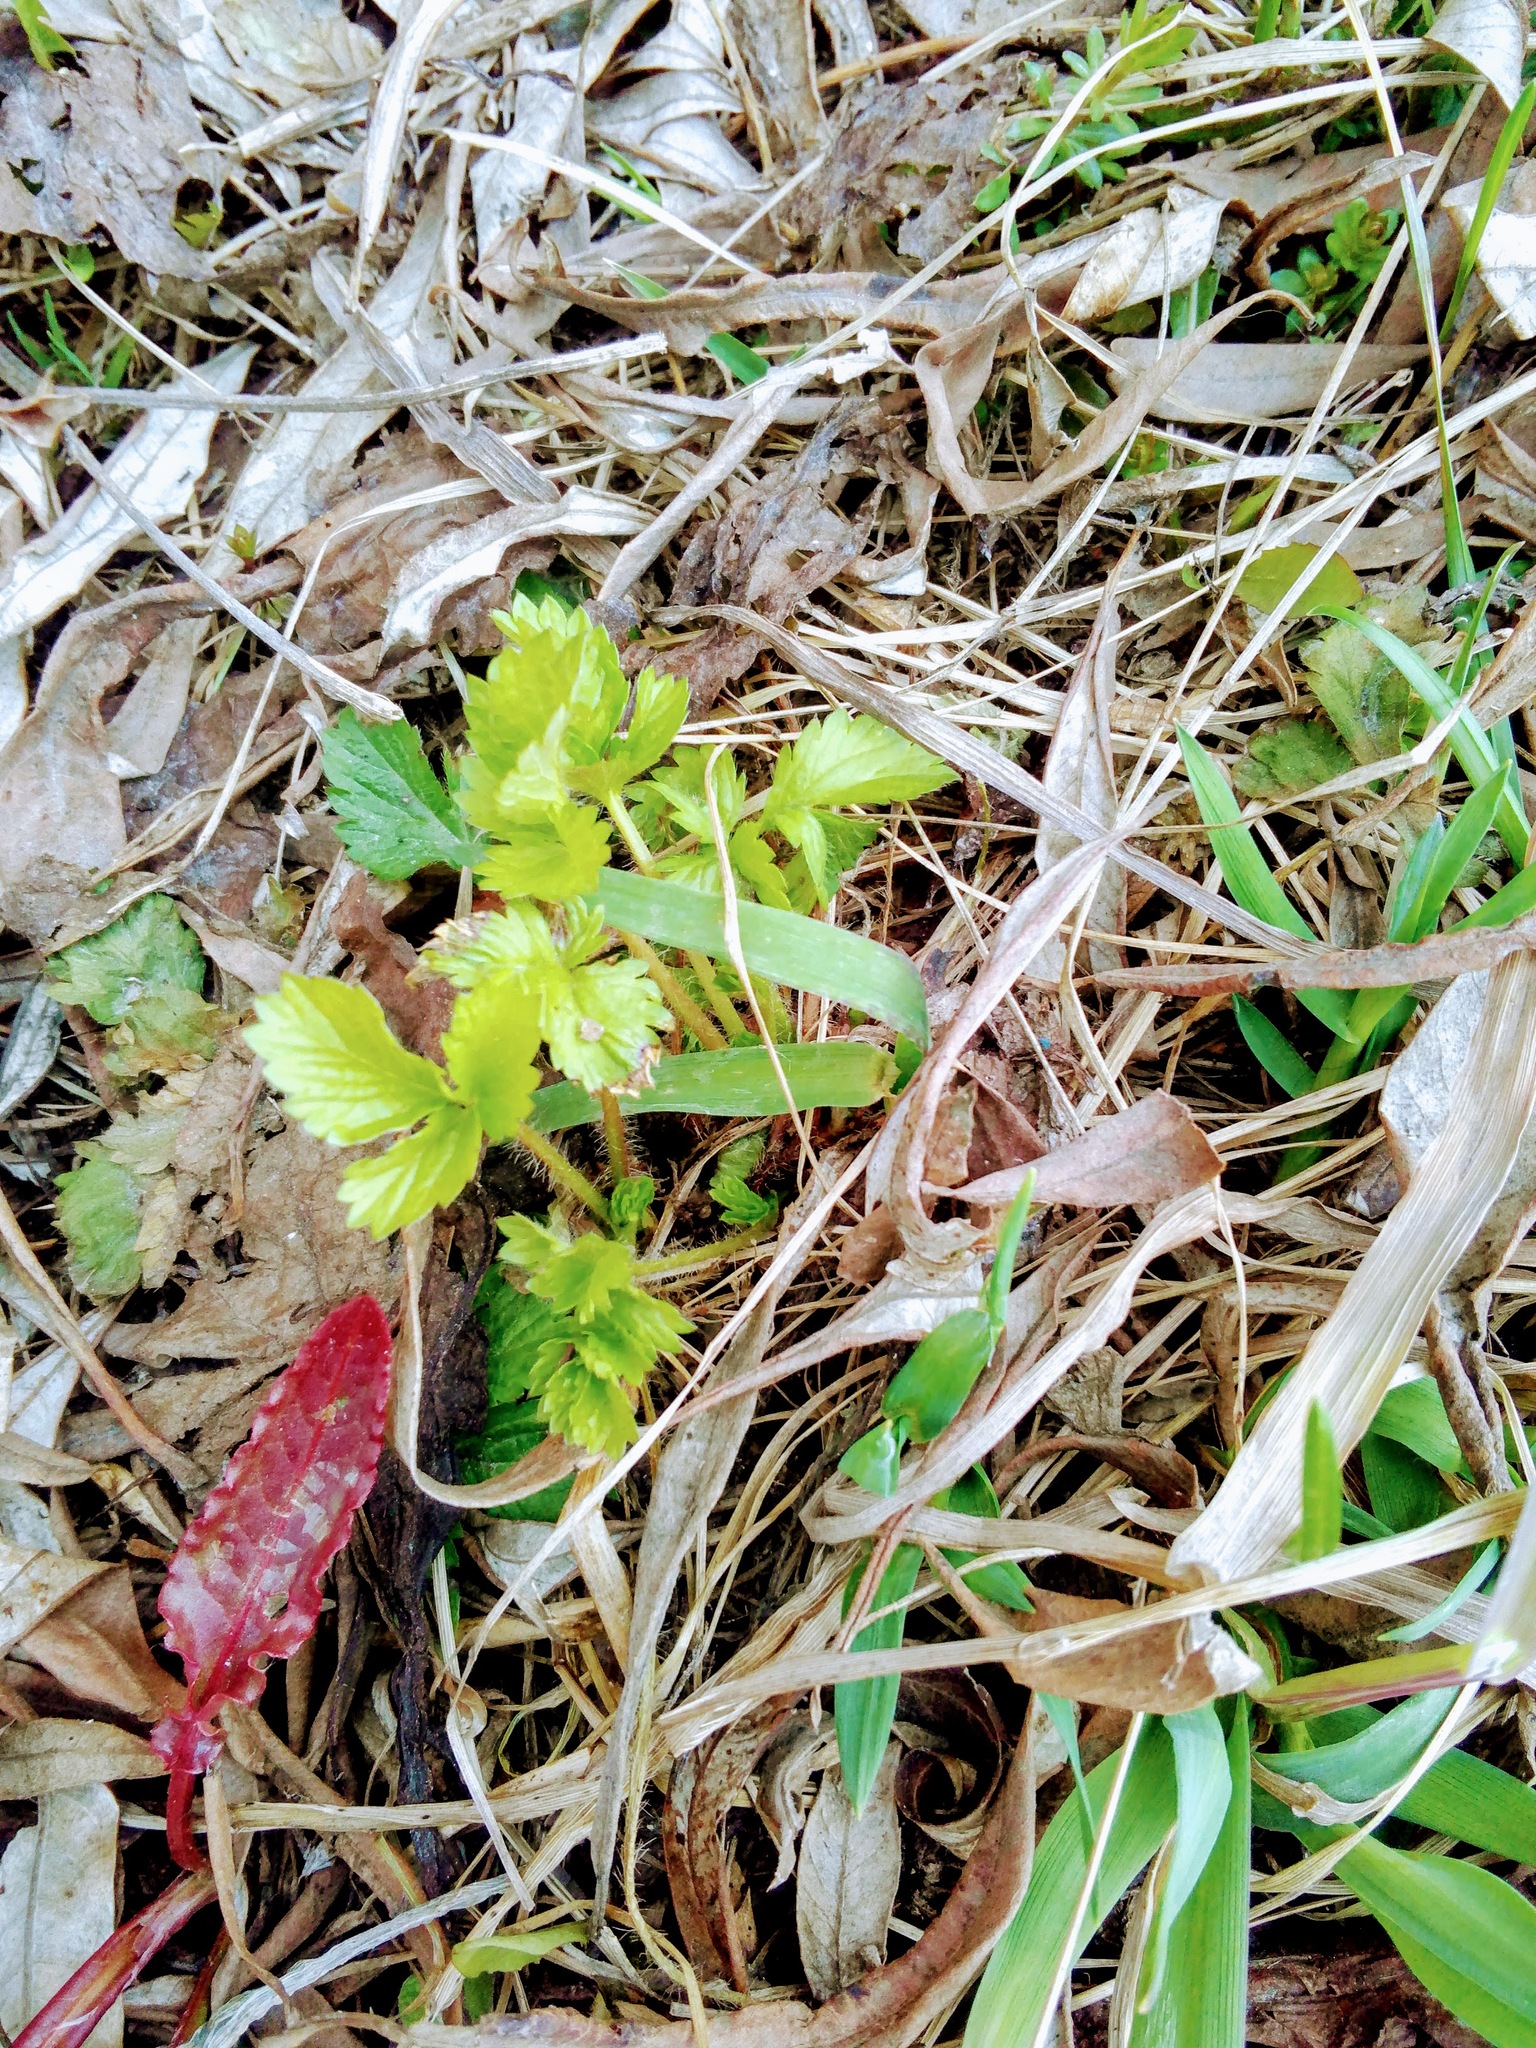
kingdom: Plantae
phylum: Tracheophyta
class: Magnoliopsida
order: Rosales
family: Rosaceae
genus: Fragaria
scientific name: Fragaria vesca
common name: Wild strawberry
